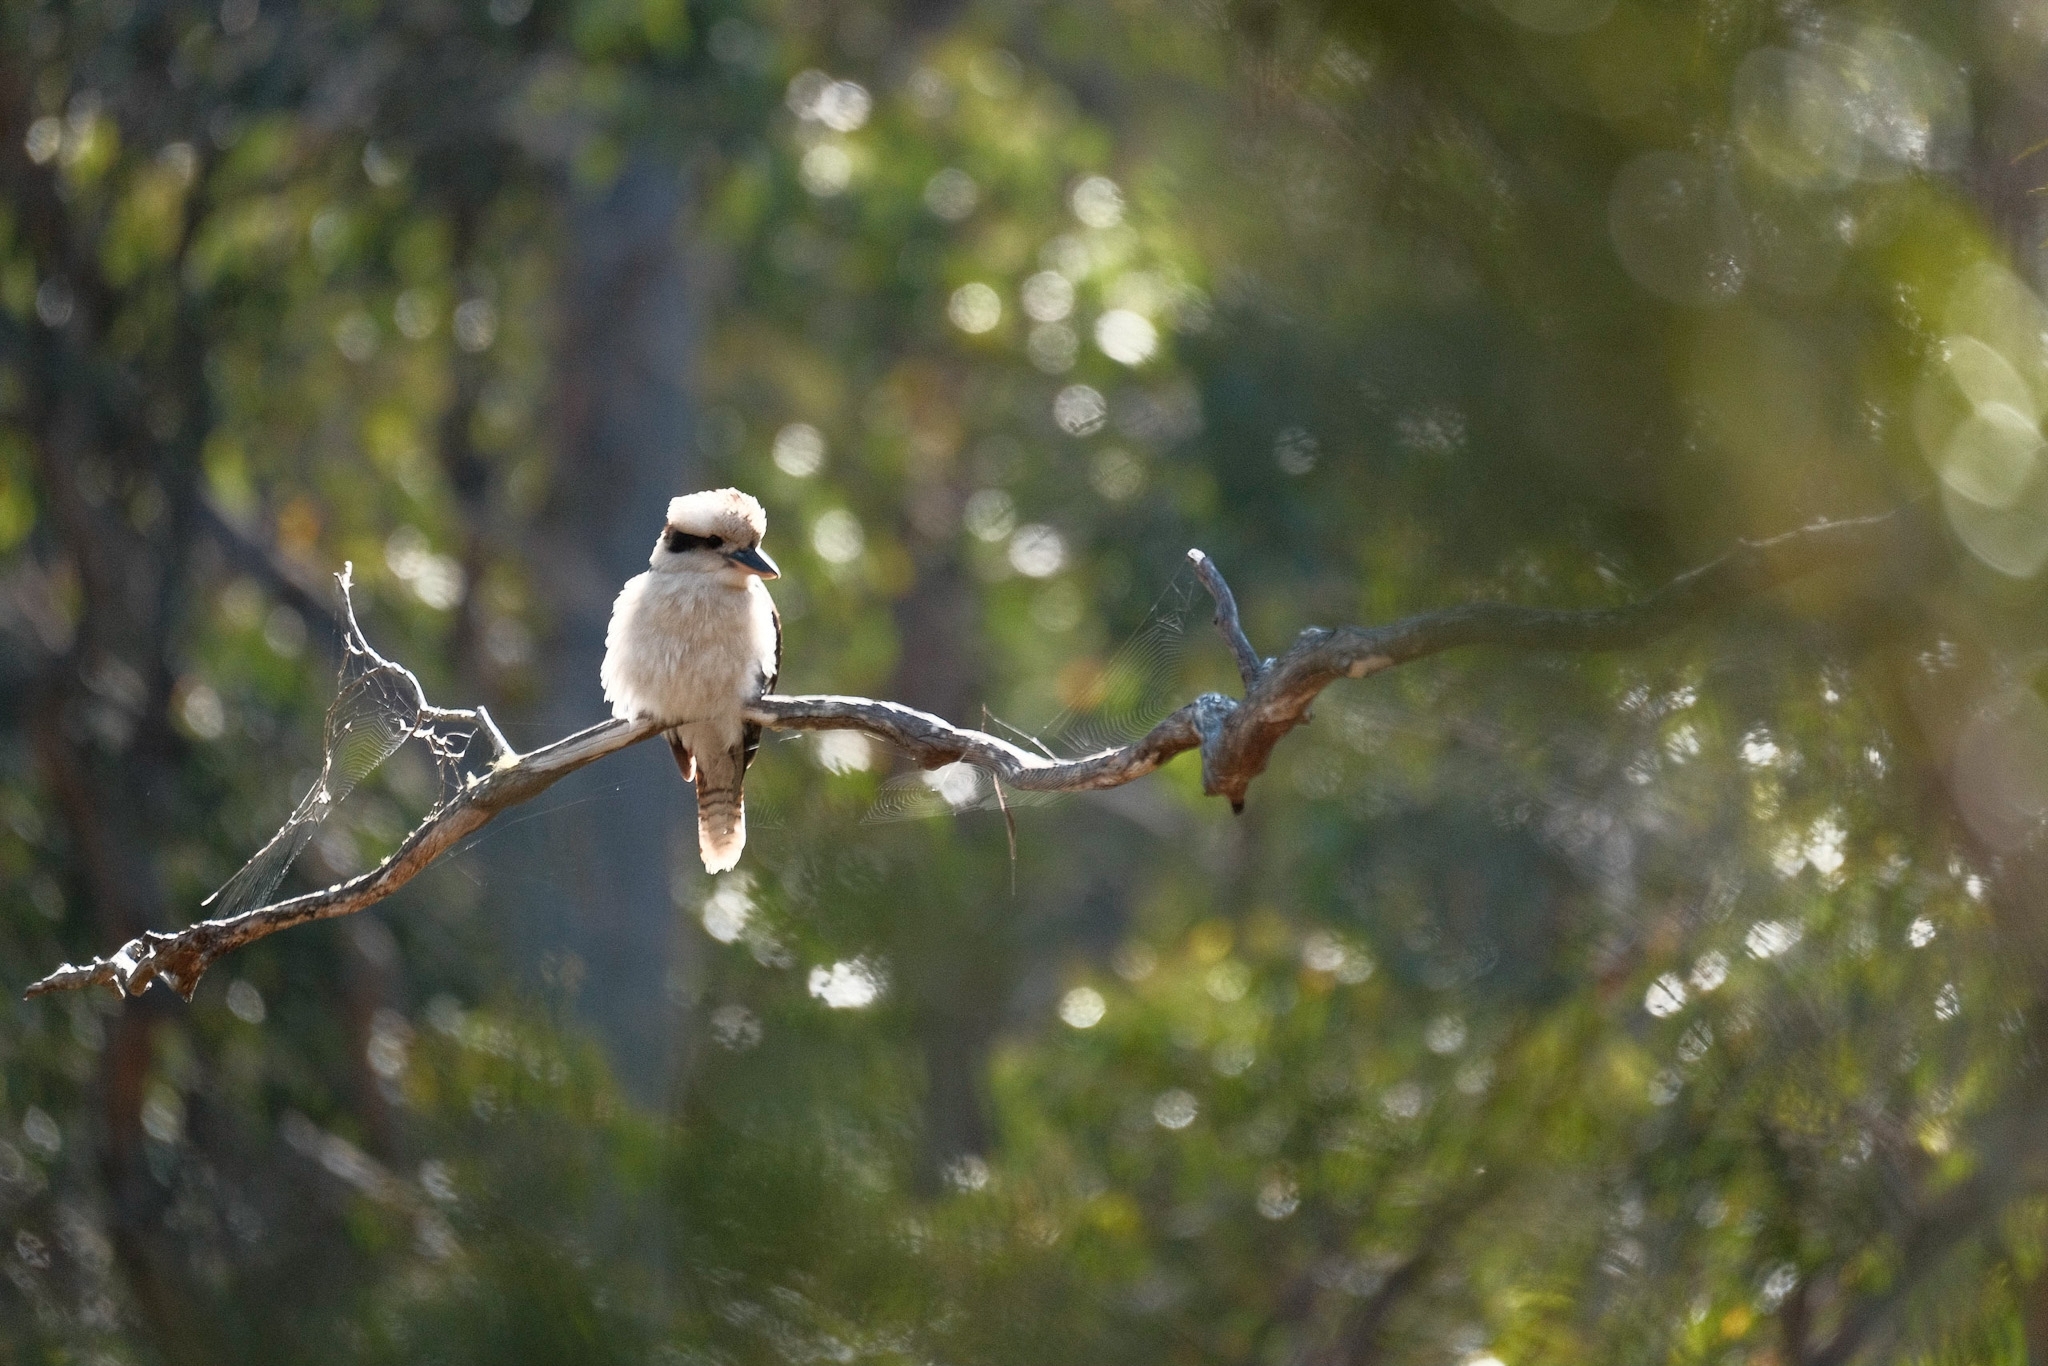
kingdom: Animalia
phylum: Chordata
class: Aves
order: Coraciiformes
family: Alcedinidae
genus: Dacelo
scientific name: Dacelo novaeguineae
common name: Laughing kookaburra
